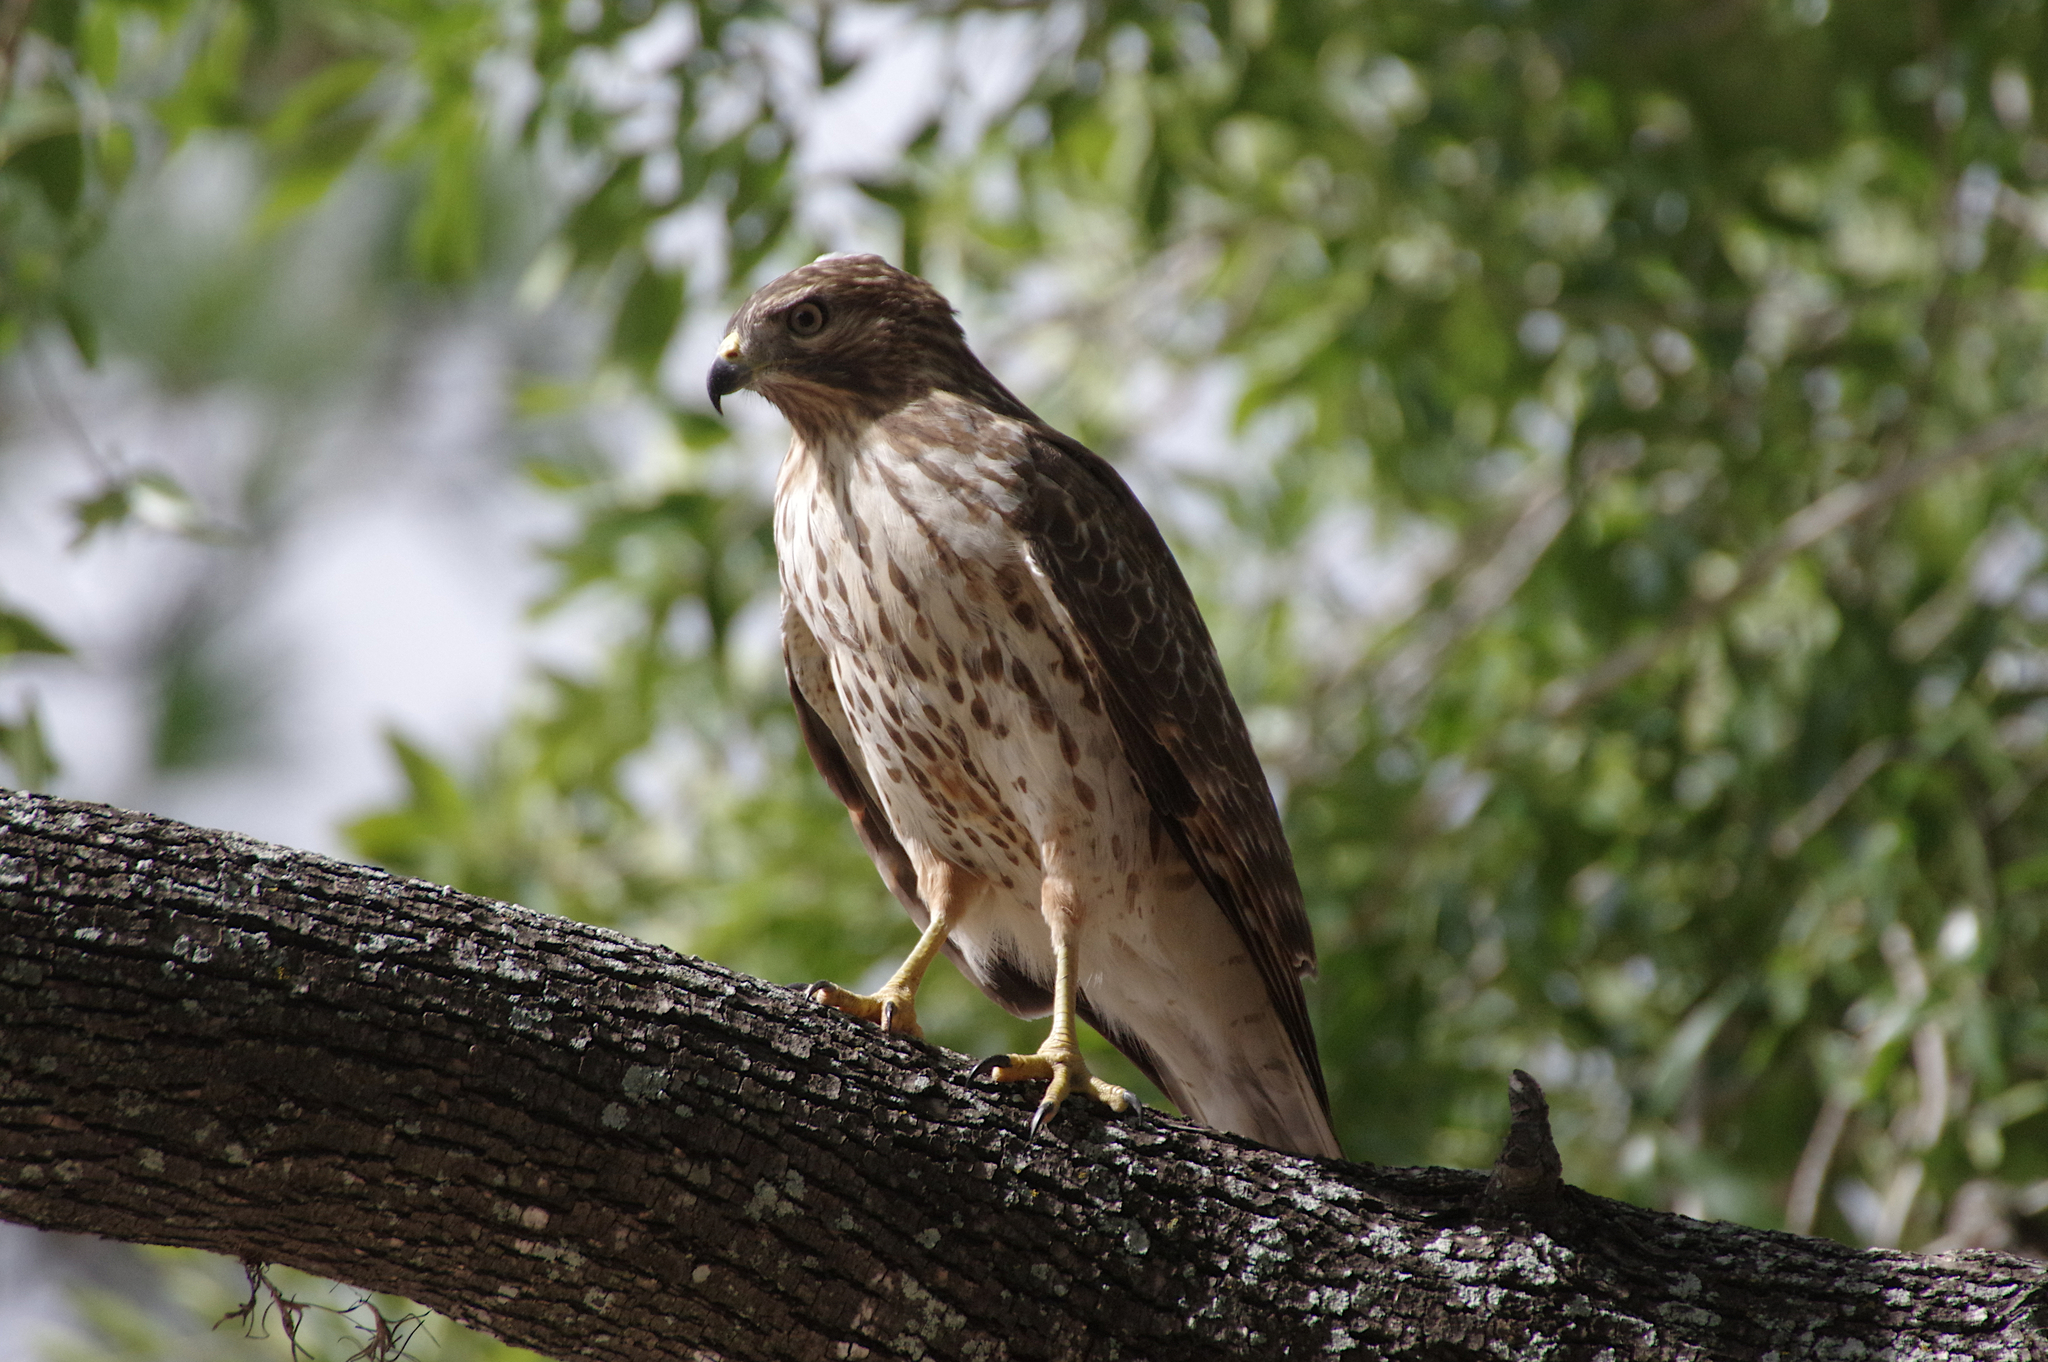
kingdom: Animalia
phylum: Chordata
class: Aves
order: Accipitriformes
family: Accipitridae
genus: Buteo
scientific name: Buteo lineatus
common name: Red-shouldered hawk
